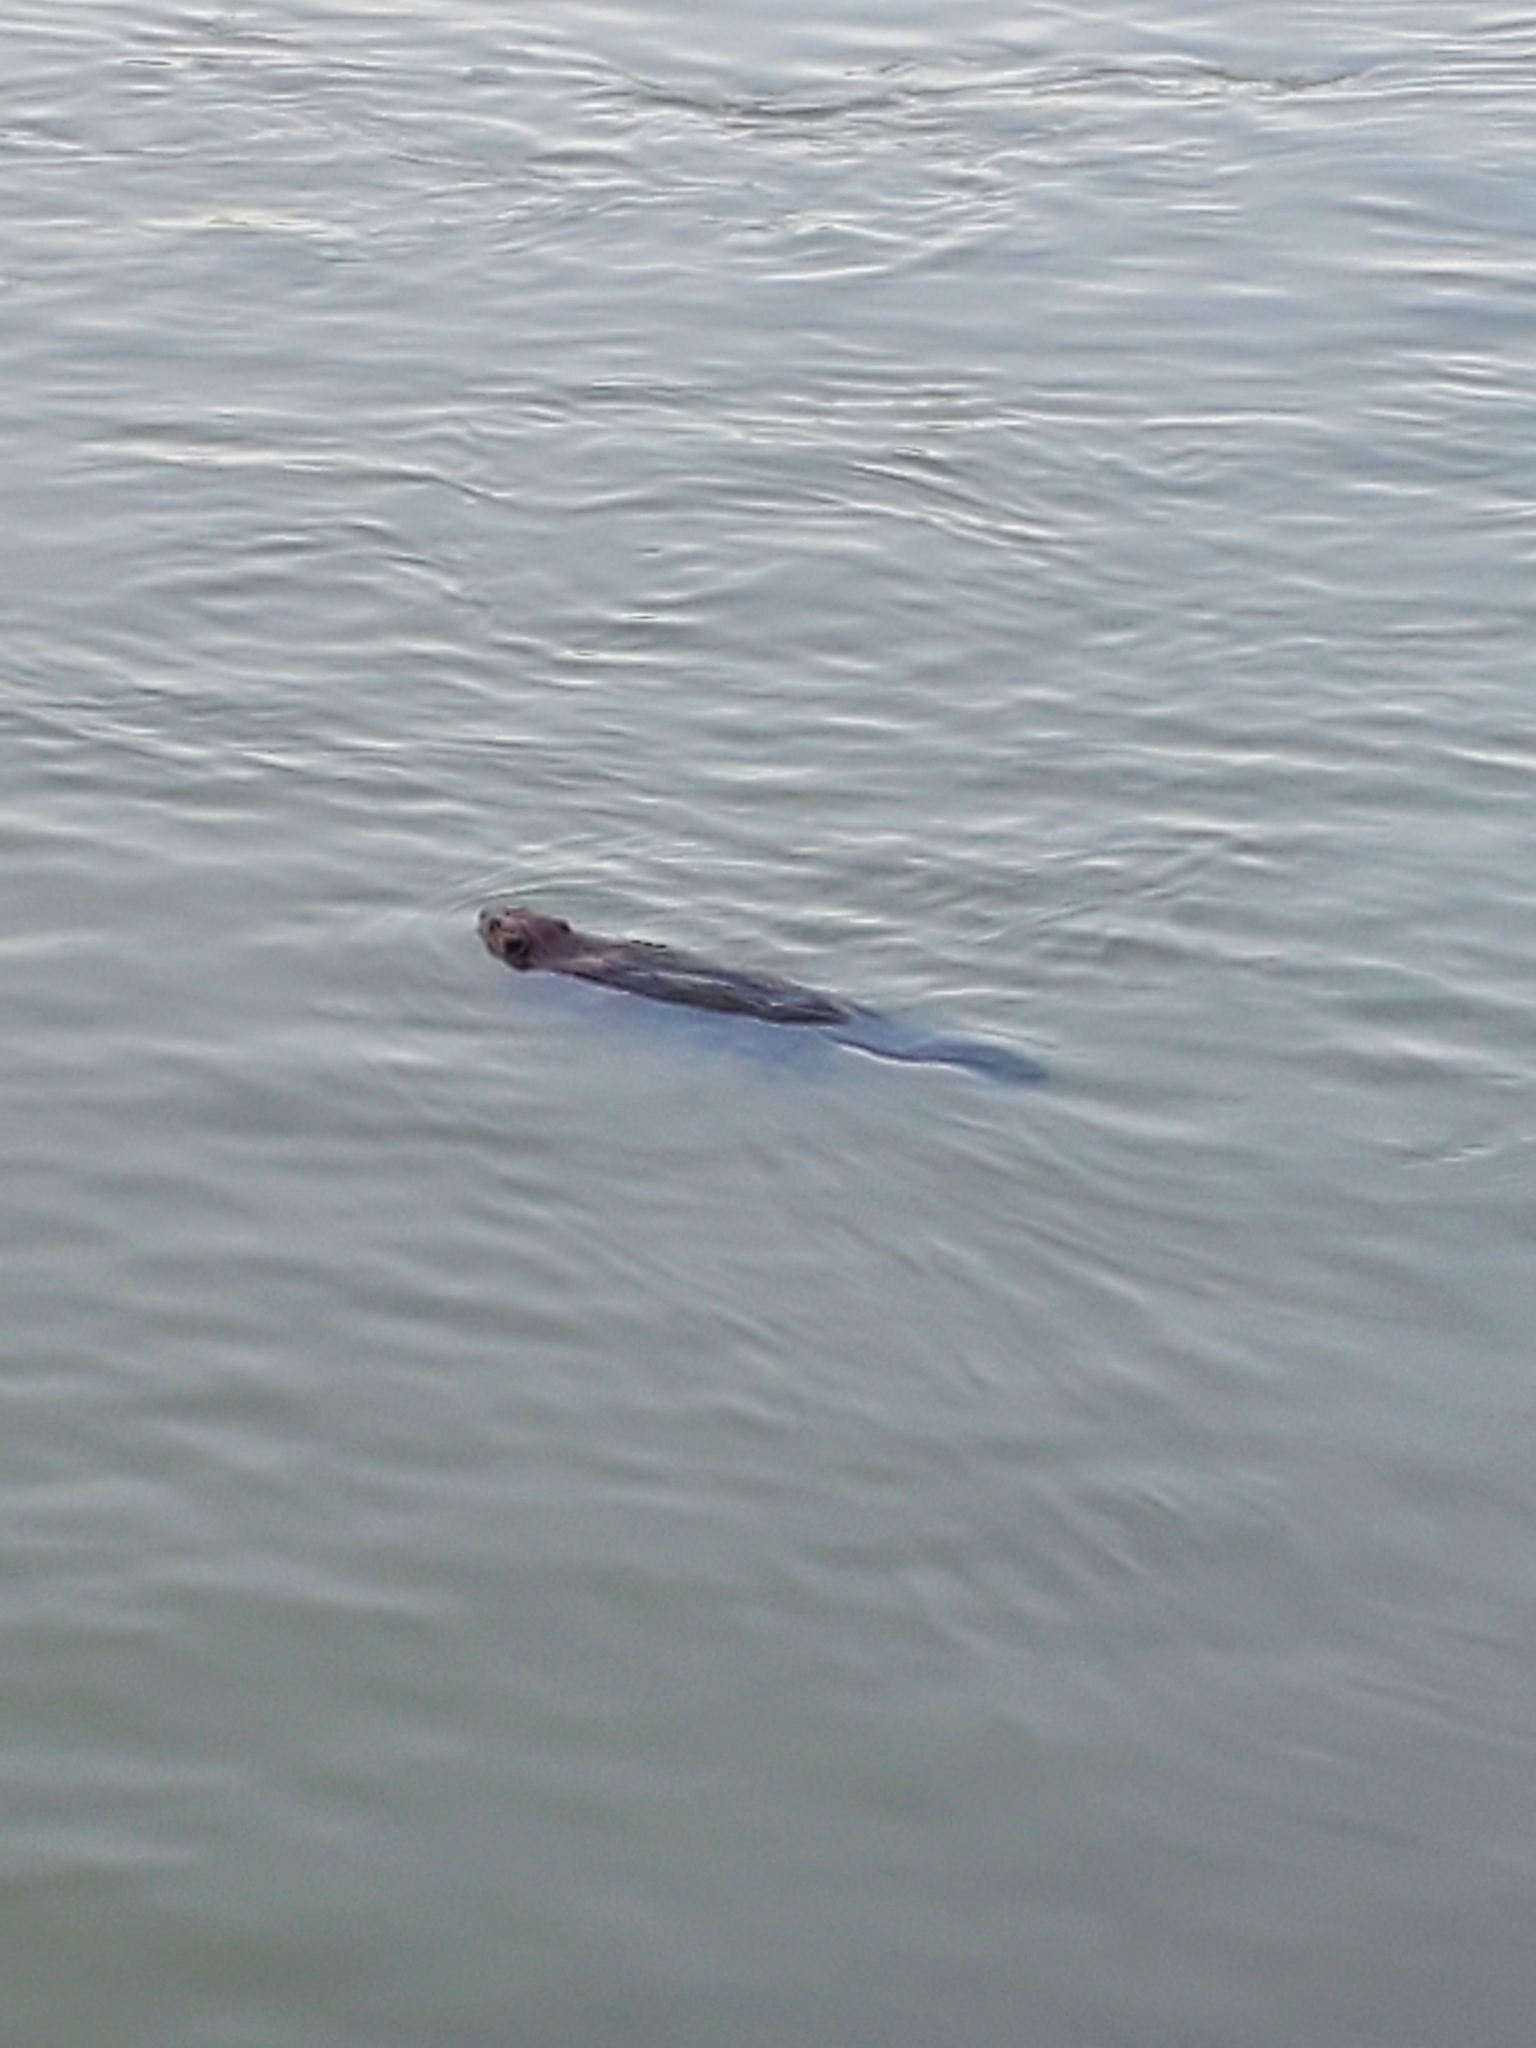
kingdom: Animalia
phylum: Chordata
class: Mammalia
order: Rodentia
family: Castoridae
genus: Castor
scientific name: Castor canadensis
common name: American beaver
